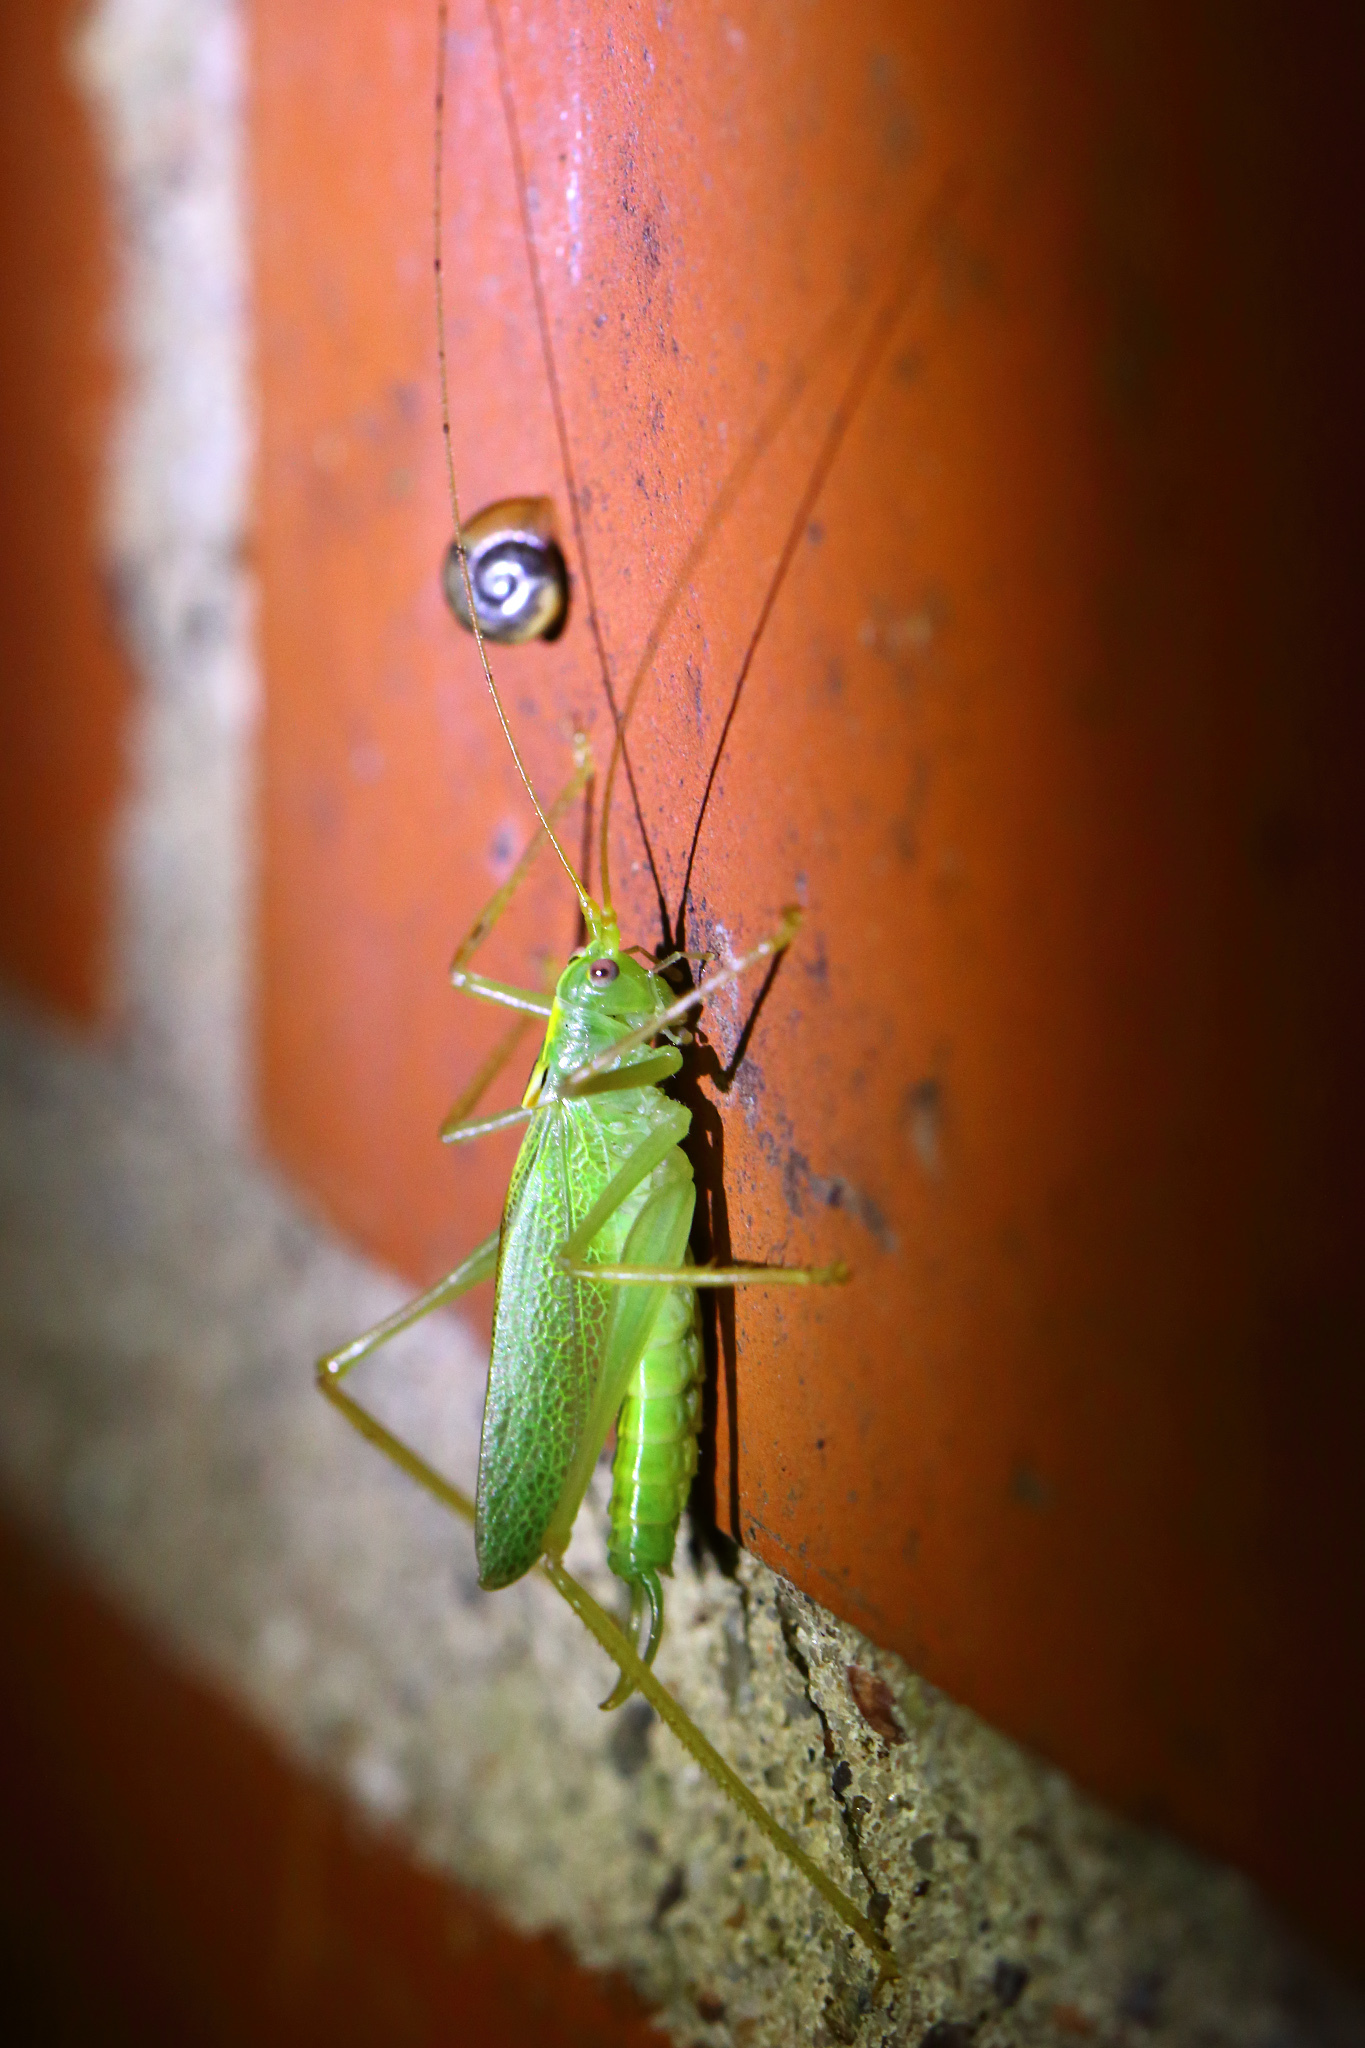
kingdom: Animalia
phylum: Arthropoda
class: Insecta
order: Orthoptera
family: Tettigoniidae
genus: Meconema
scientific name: Meconema thalassinum
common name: Oak bush-cricket
